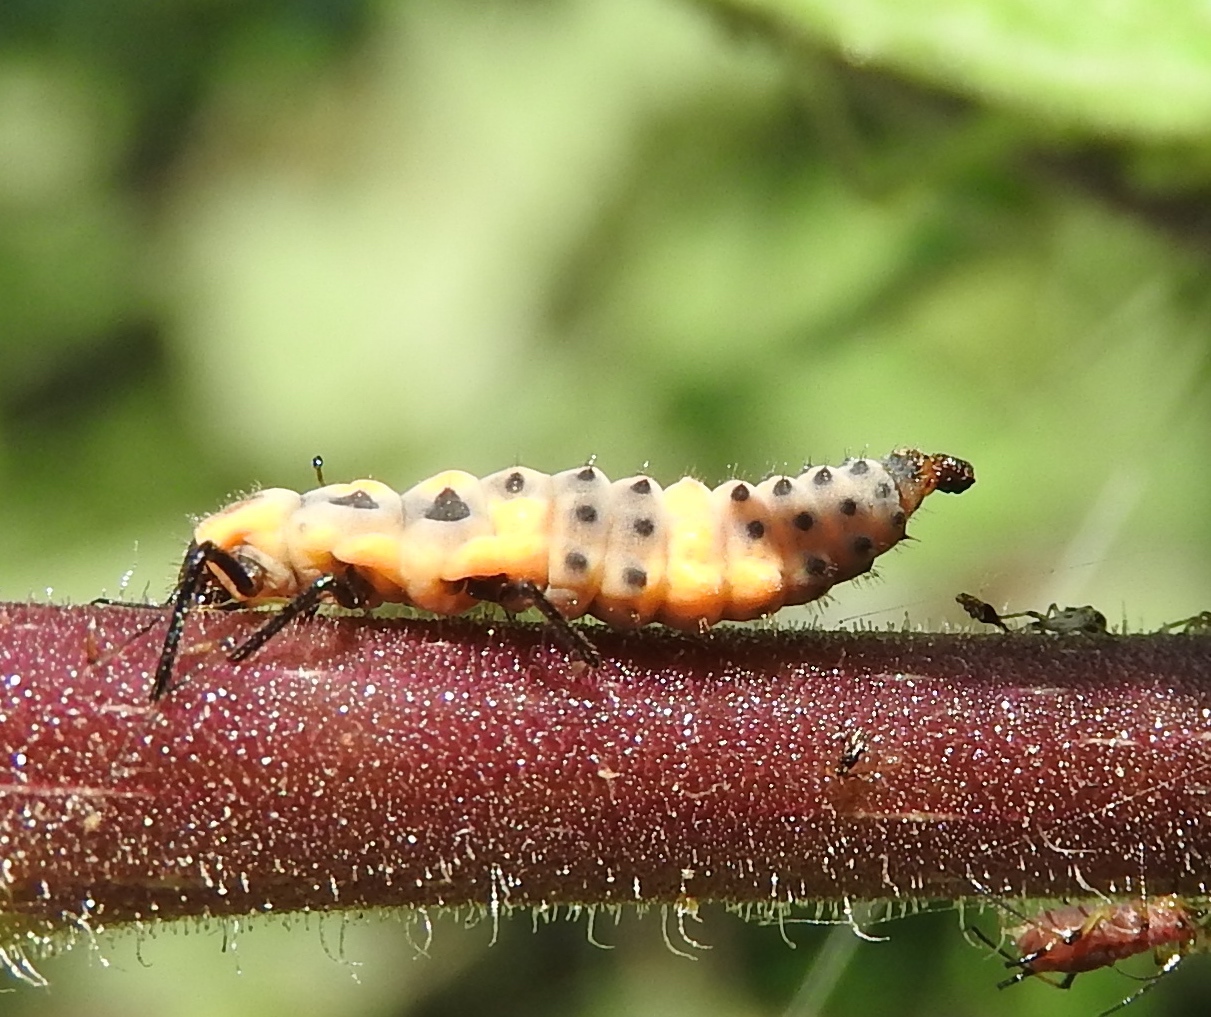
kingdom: Animalia
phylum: Arthropoda
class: Insecta
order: Coleoptera
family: Coccinellidae
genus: Coccinellina
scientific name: Coccinellina
